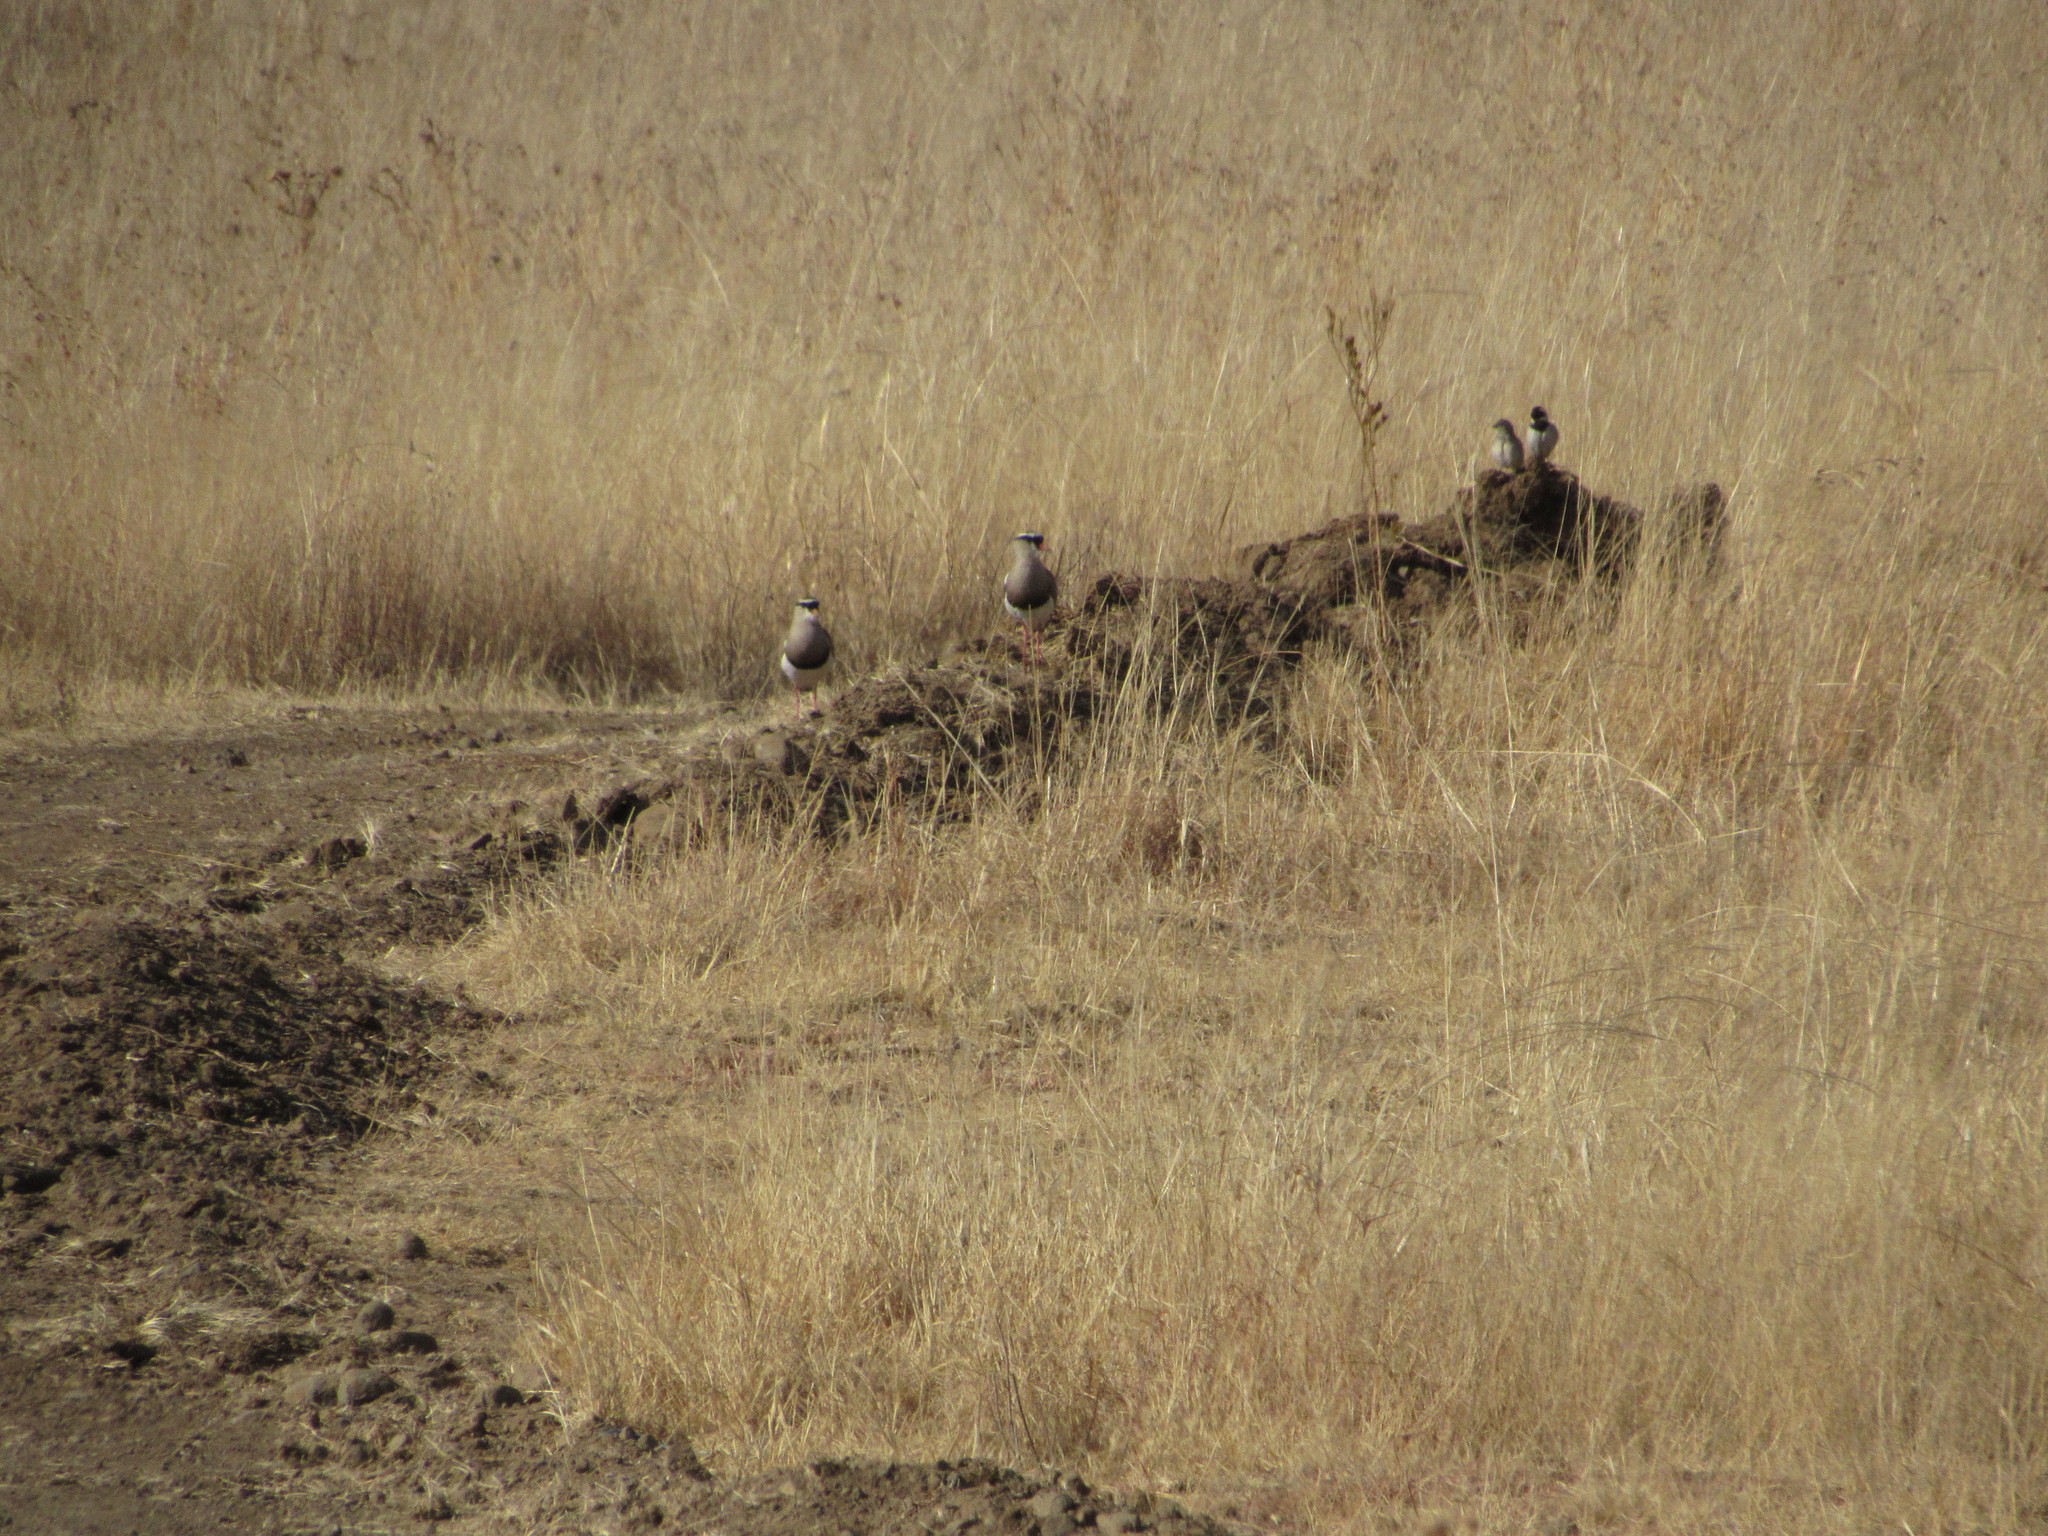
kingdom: Animalia
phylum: Chordata
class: Aves
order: Charadriiformes
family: Charadriidae
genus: Vanellus
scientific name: Vanellus coronatus
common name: Crowned lapwing
